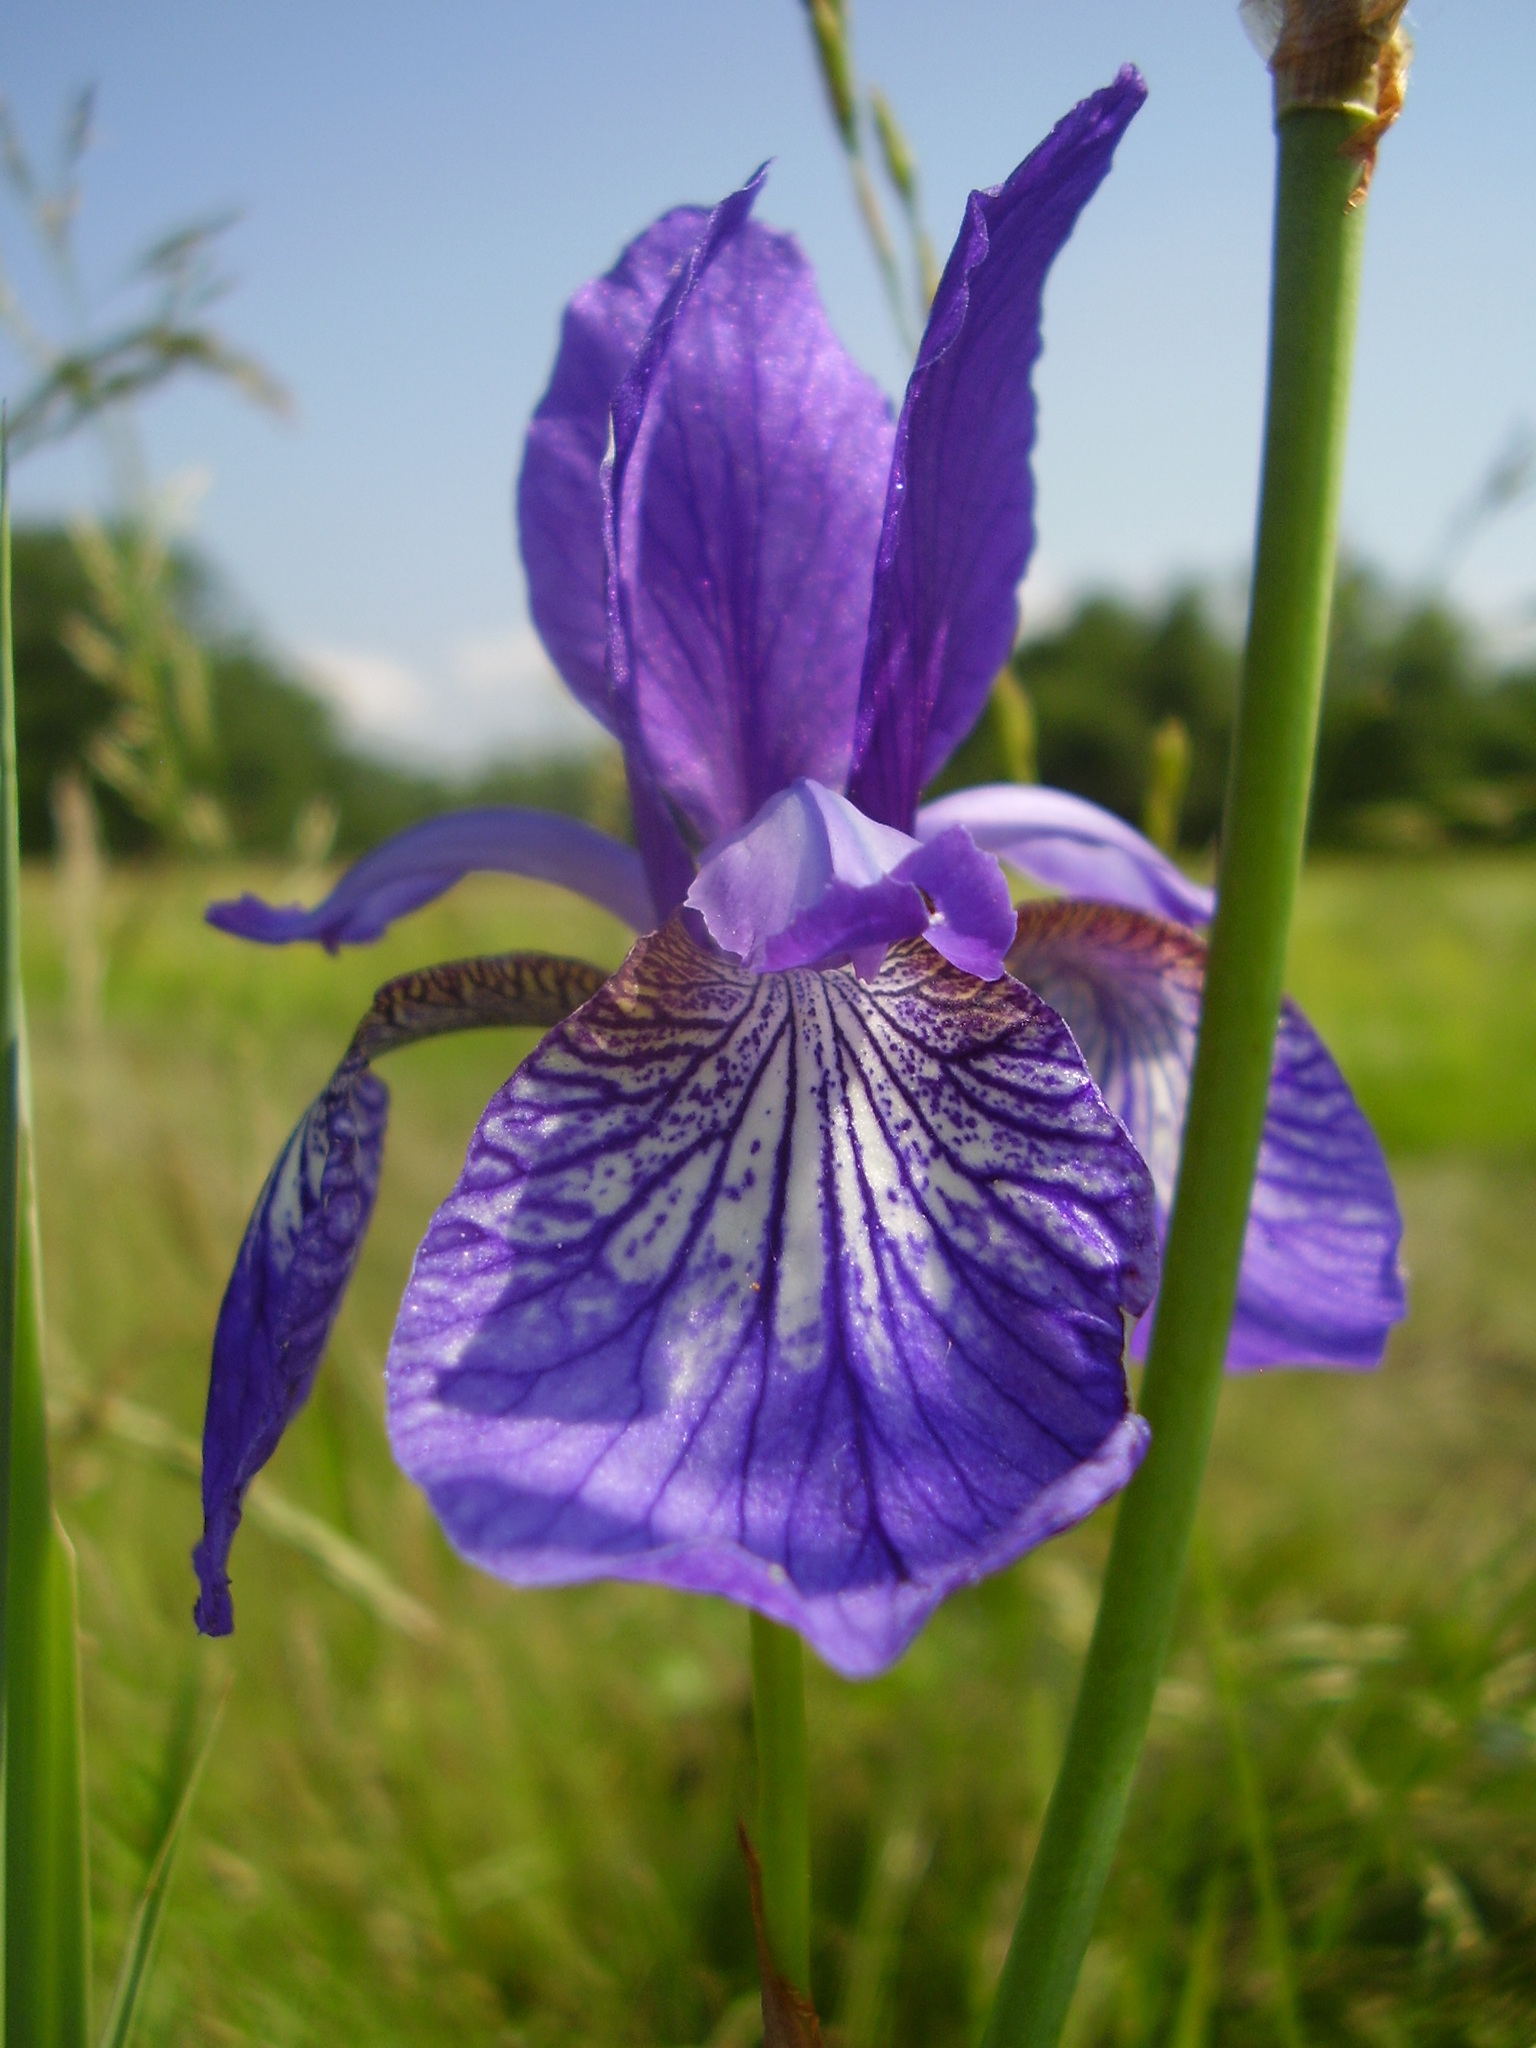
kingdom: Plantae
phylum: Tracheophyta
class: Liliopsida
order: Asparagales
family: Iridaceae
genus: Iris
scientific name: Iris sibirica
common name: Siberian iris
